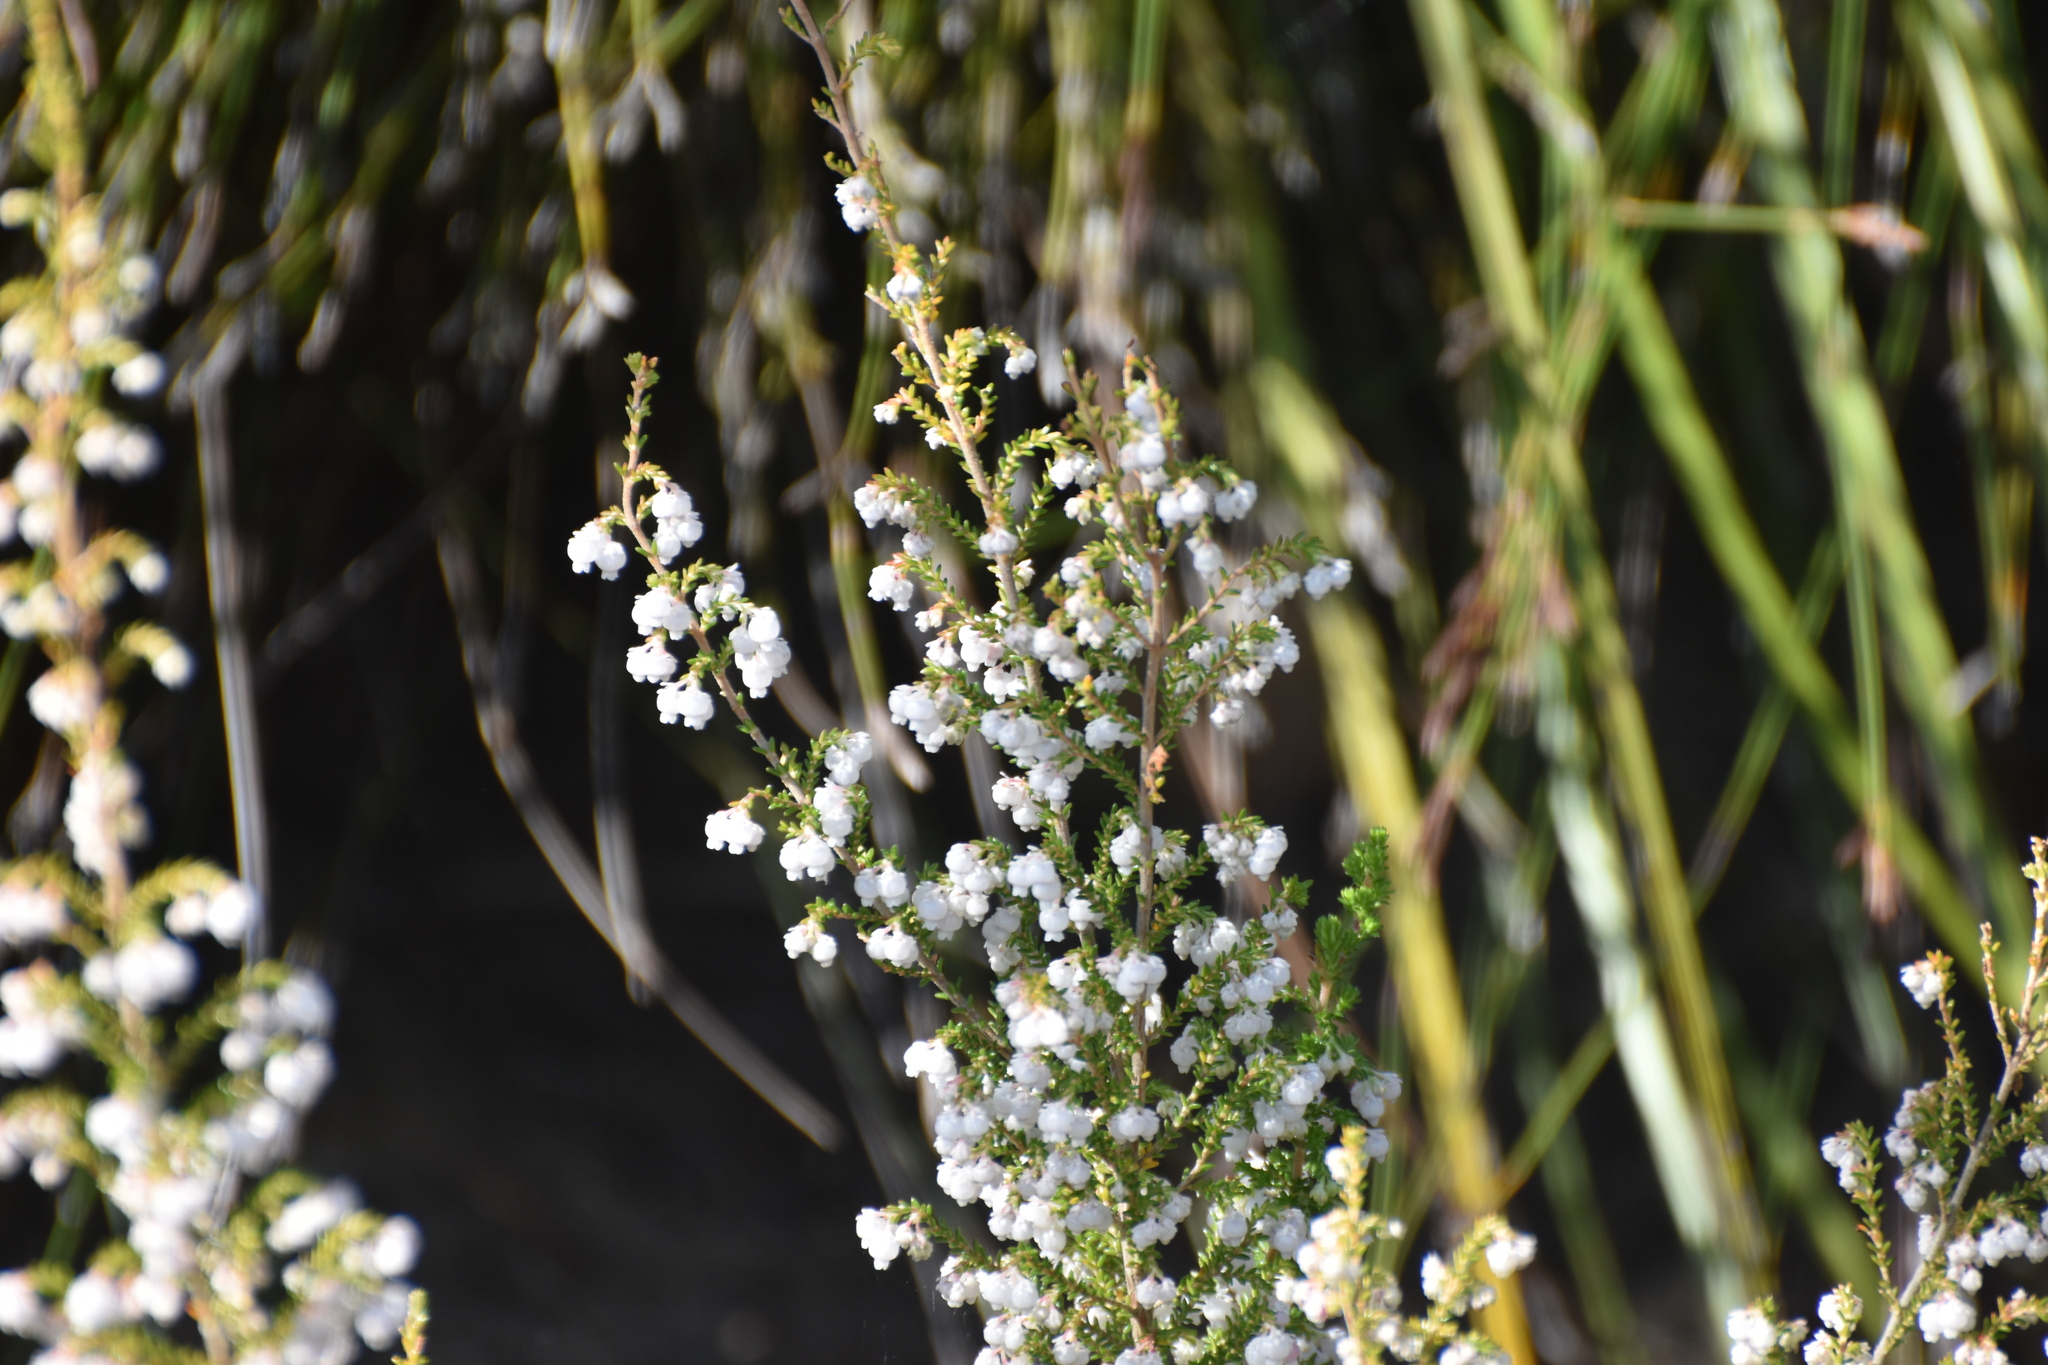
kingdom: Plantae
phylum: Tracheophyta
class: Magnoliopsida
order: Ericales
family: Ericaceae
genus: Erica
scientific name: Erica glomiflora
